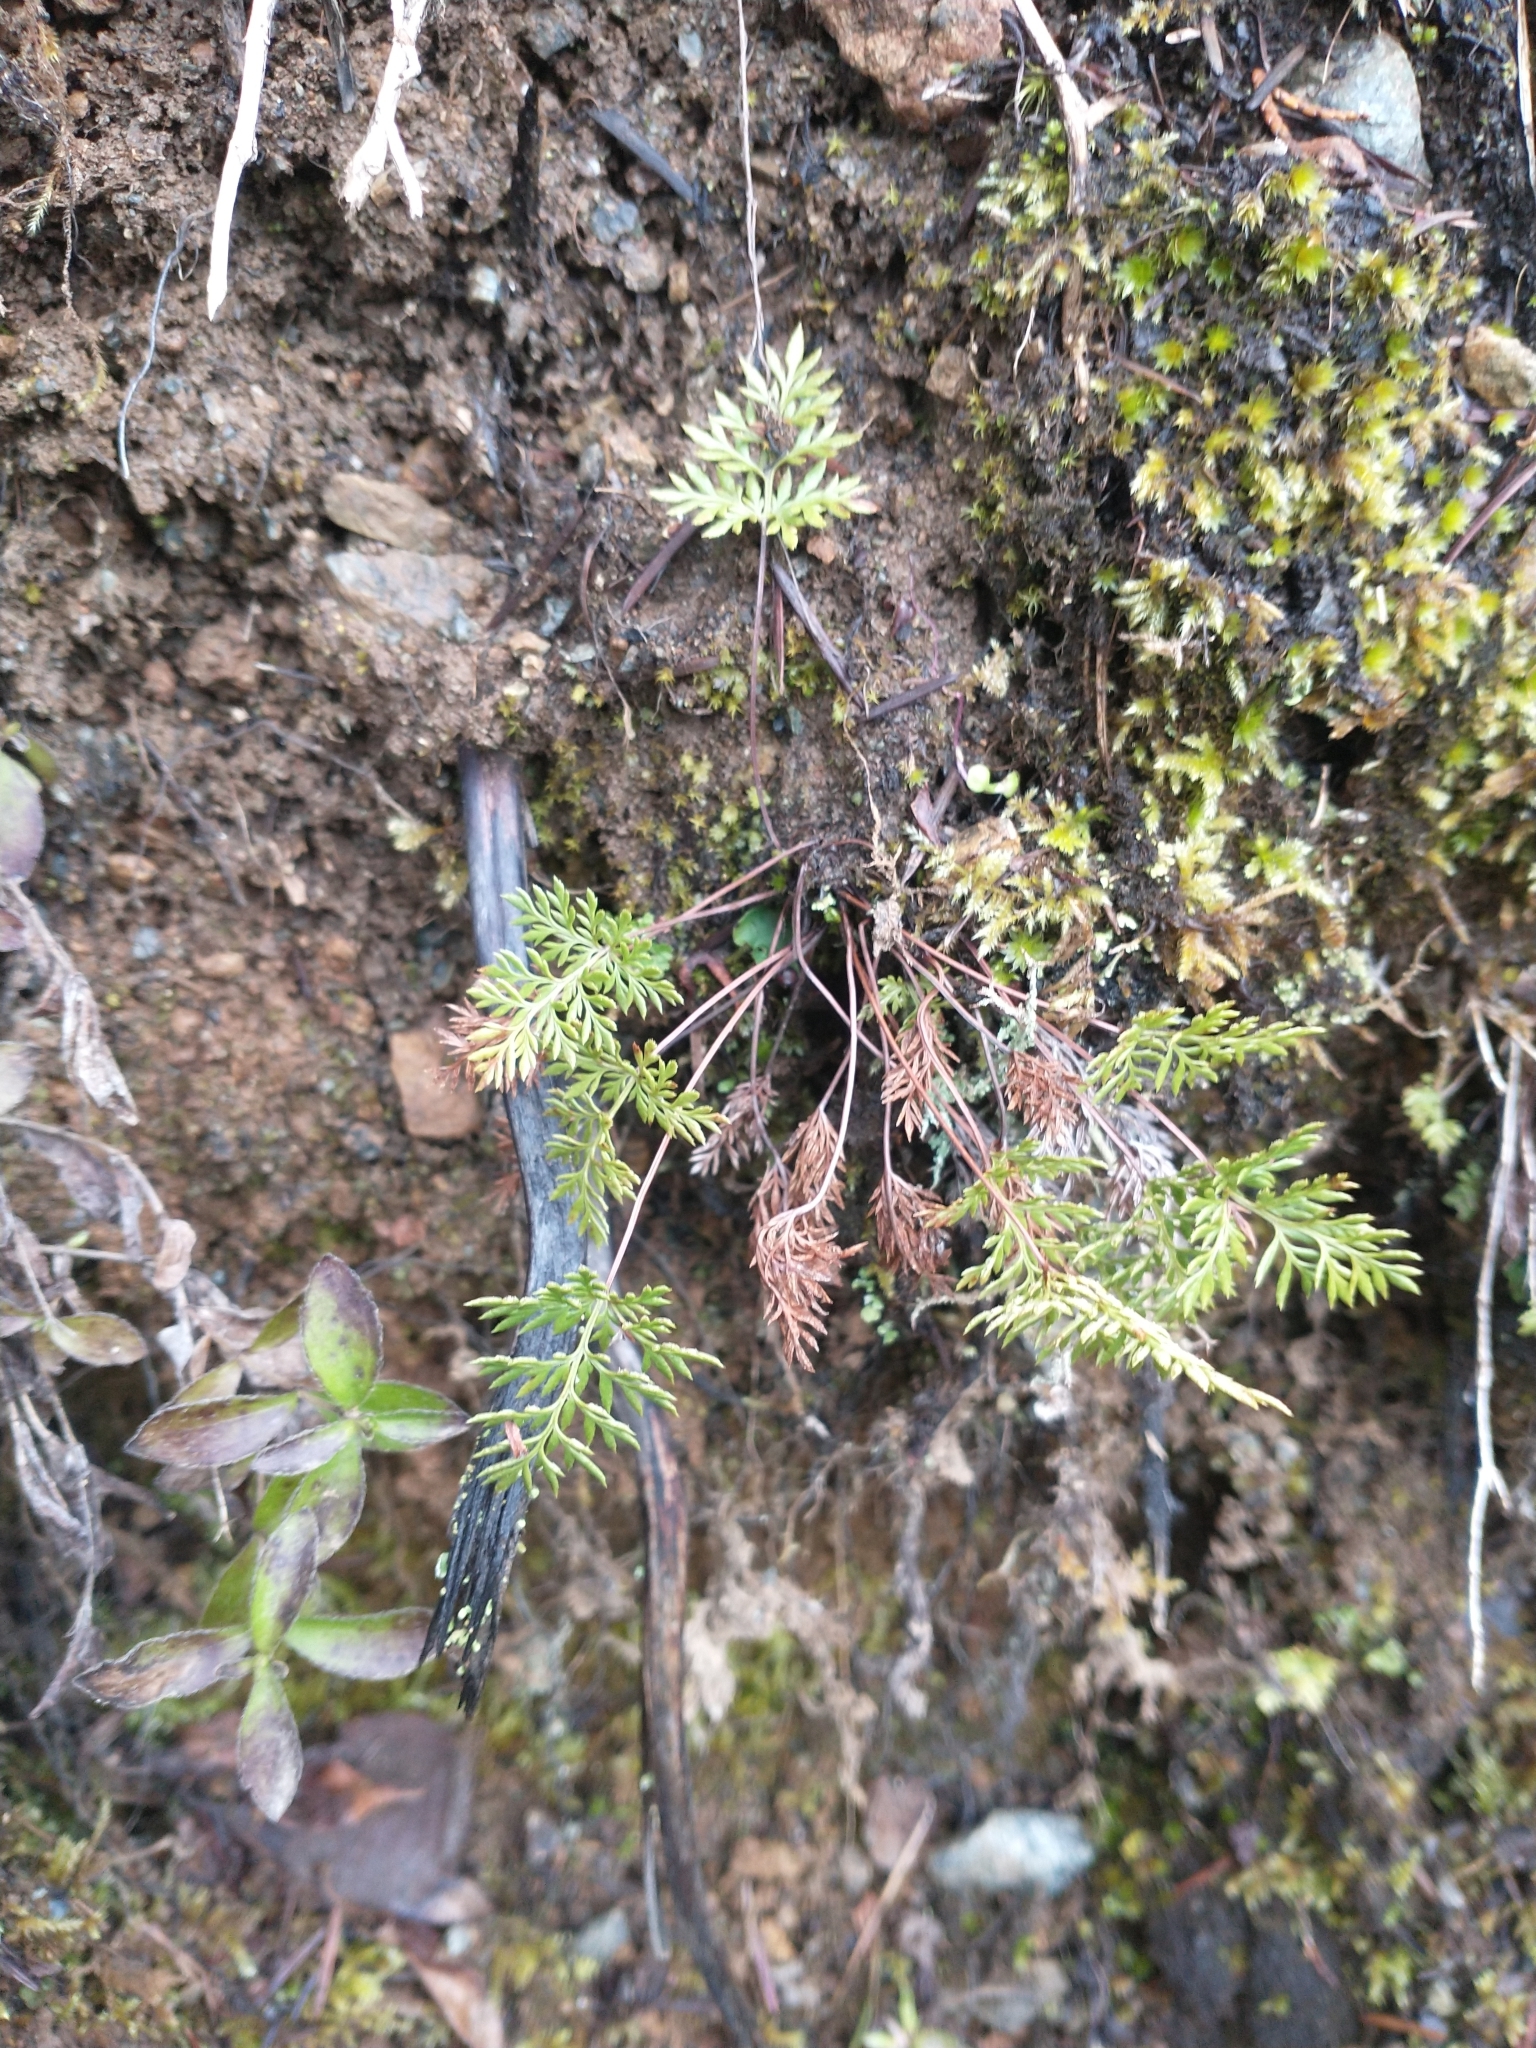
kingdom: Plantae
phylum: Tracheophyta
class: Polypodiopsida
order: Polypodiales
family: Pteridaceae
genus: Aspidotis
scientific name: Aspidotis densa
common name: Indian's dream
